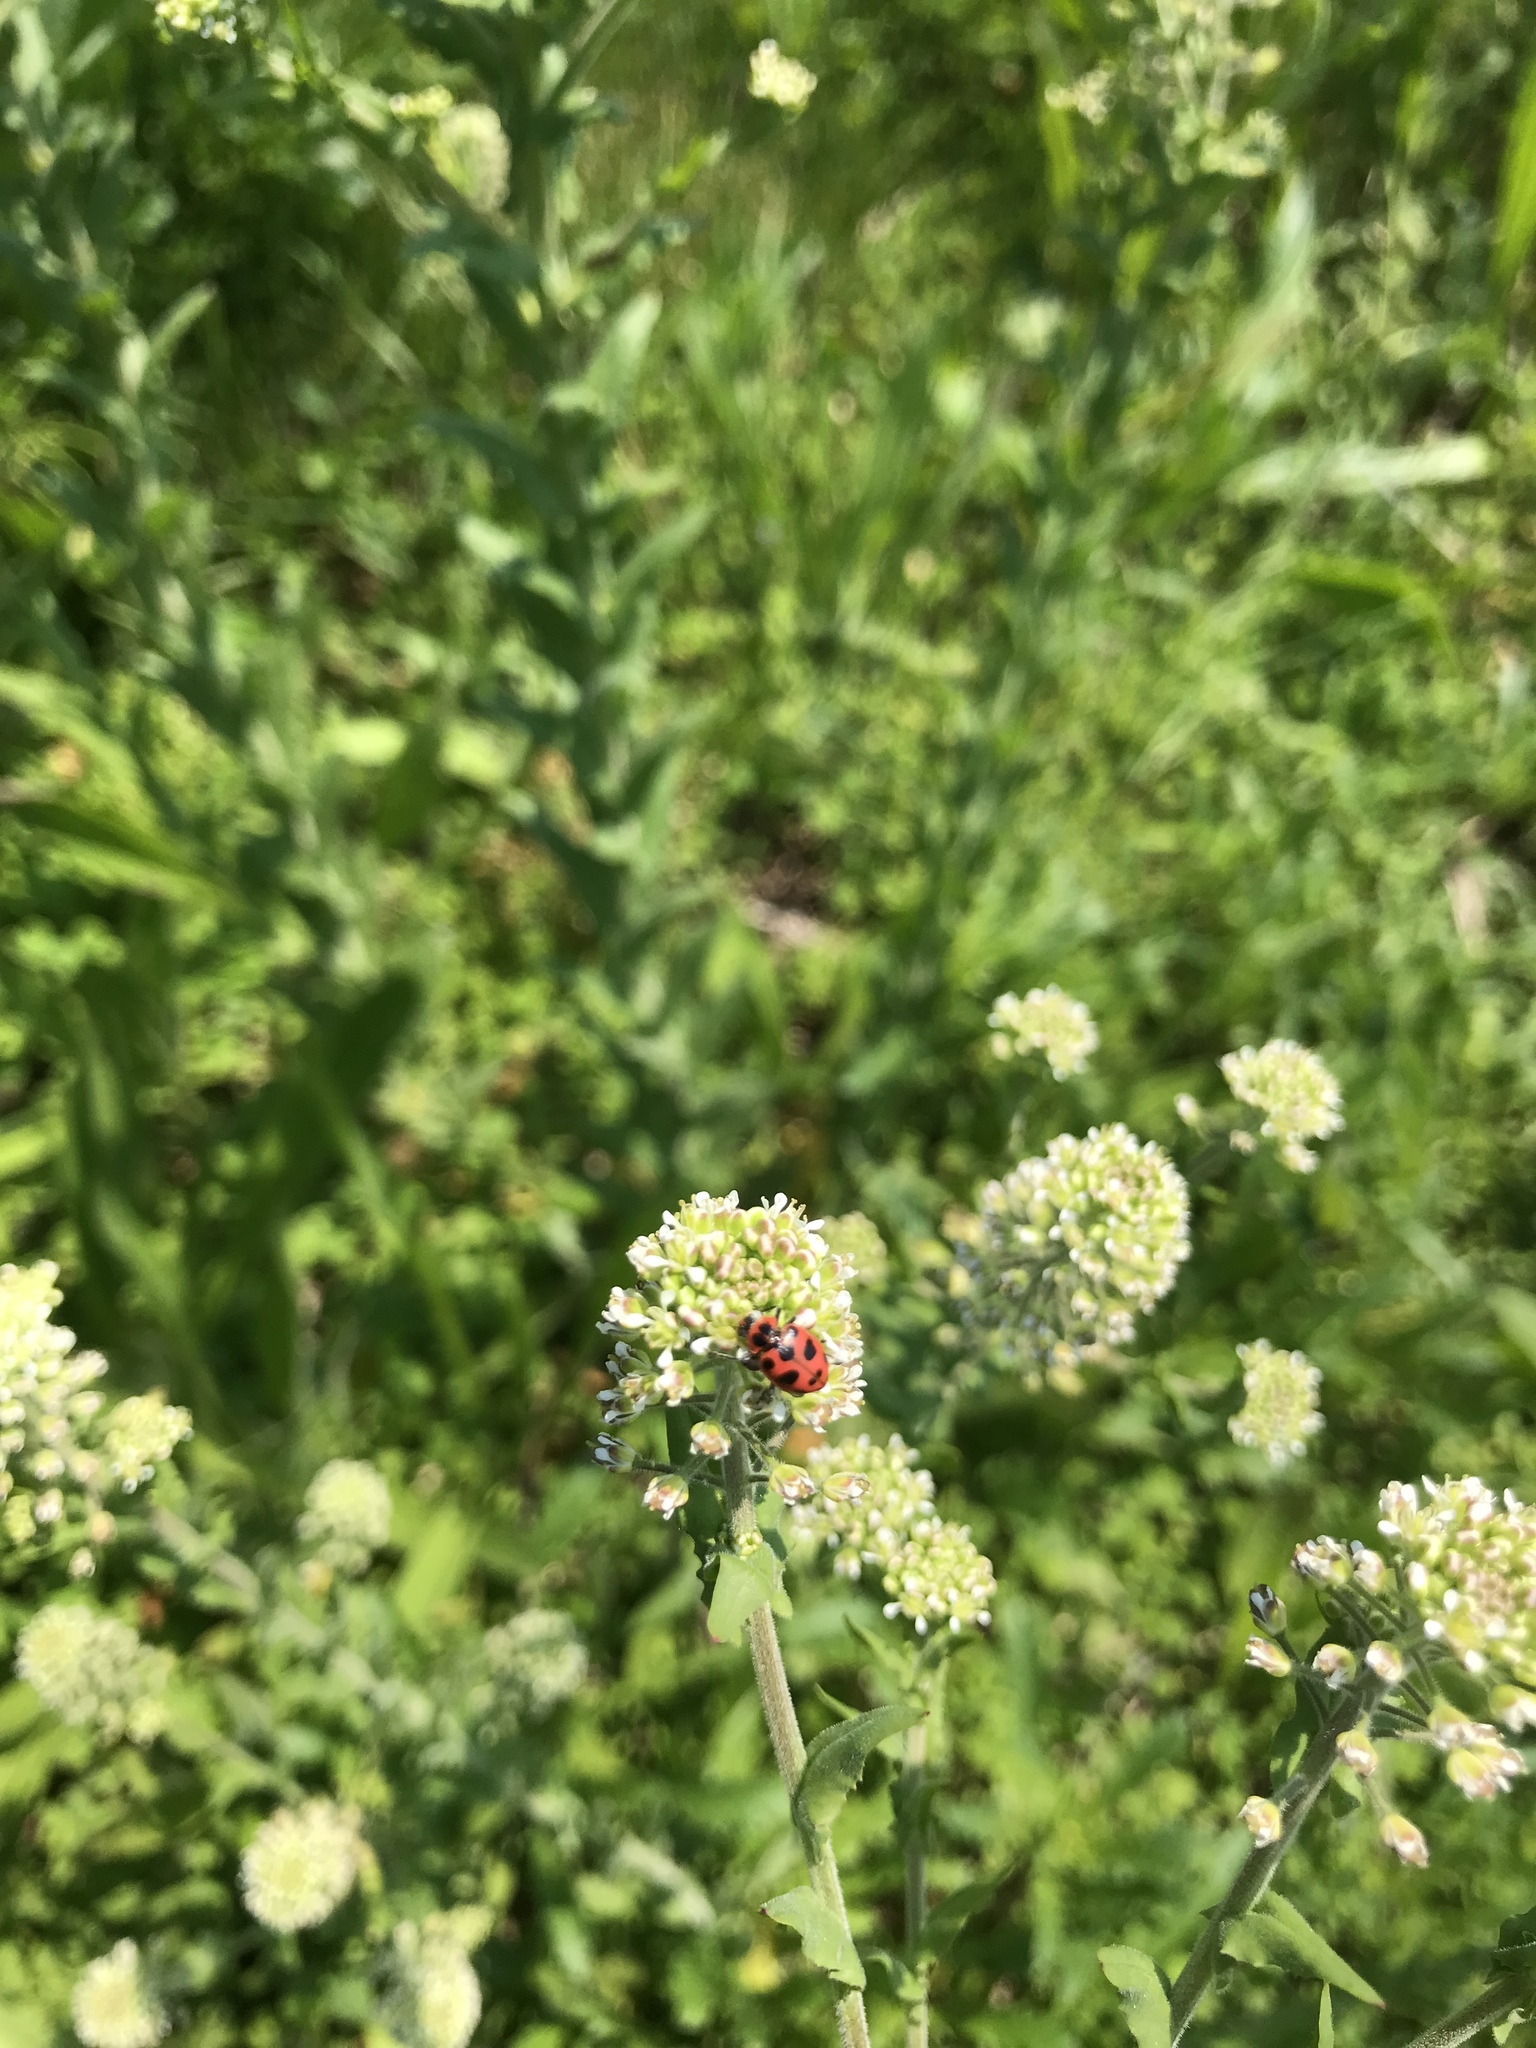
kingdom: Animalia
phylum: Arthropoda
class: Insecta
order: Coleoptera
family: Coccinellidae
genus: Coleomegilla
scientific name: Coleomegilla maculata
